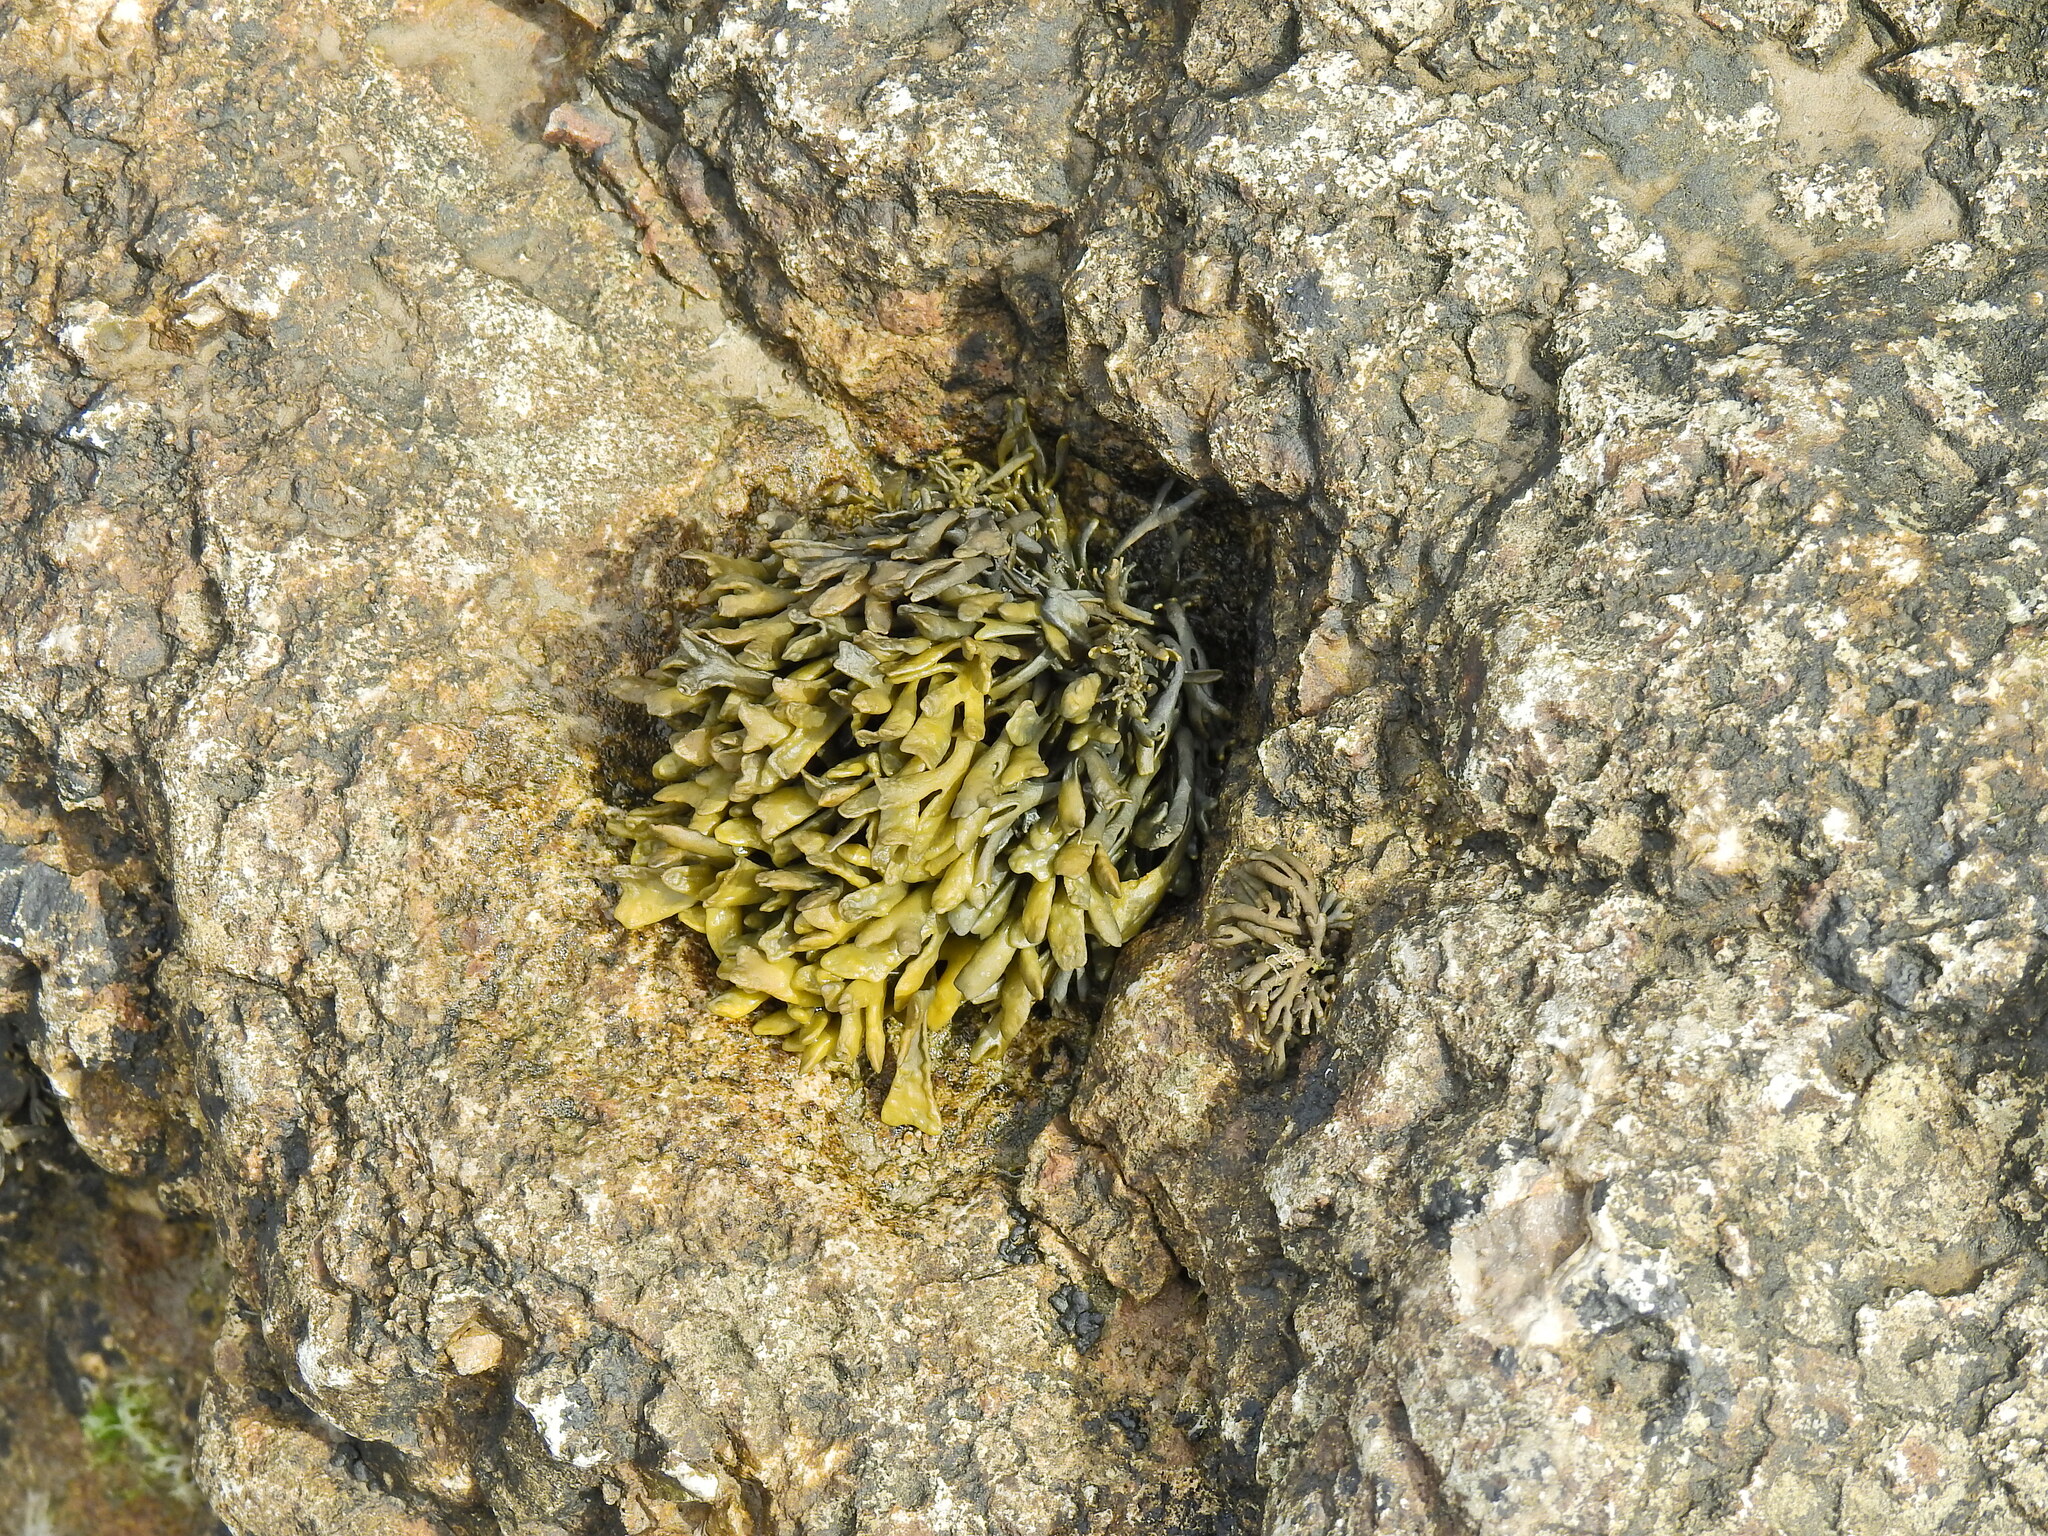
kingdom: Chromista
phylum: Ochrophyta
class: Phaeophyceae
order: Fucales
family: Fucaceae
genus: Pelvetia
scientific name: Pelvetia canaliculata
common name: Channelled wrack
